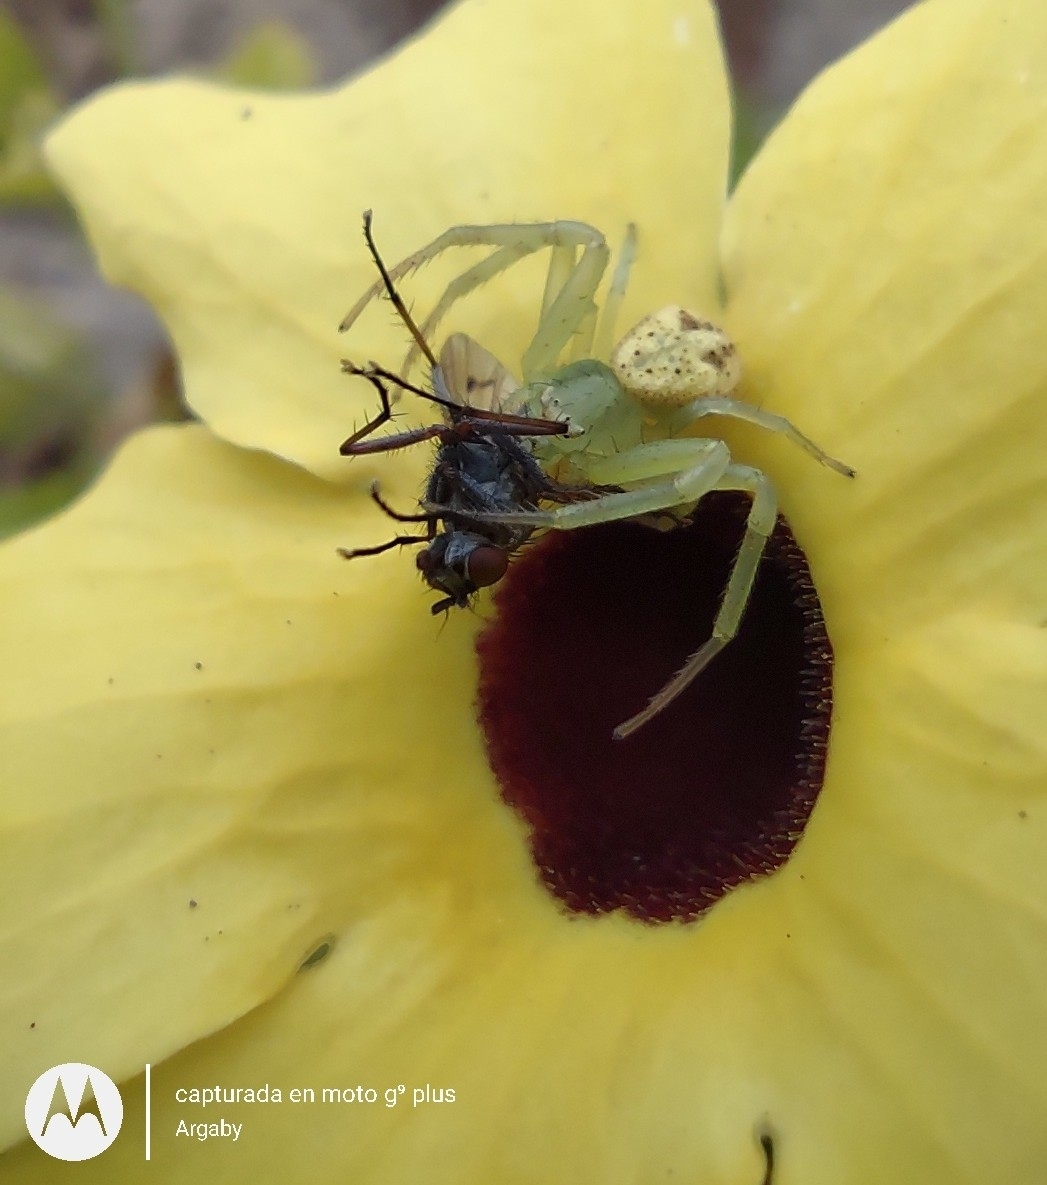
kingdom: Animalia
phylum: Arthropoda
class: Arachnida
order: Araneae
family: Thomisidae
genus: Misumenops
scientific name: Misumenops
